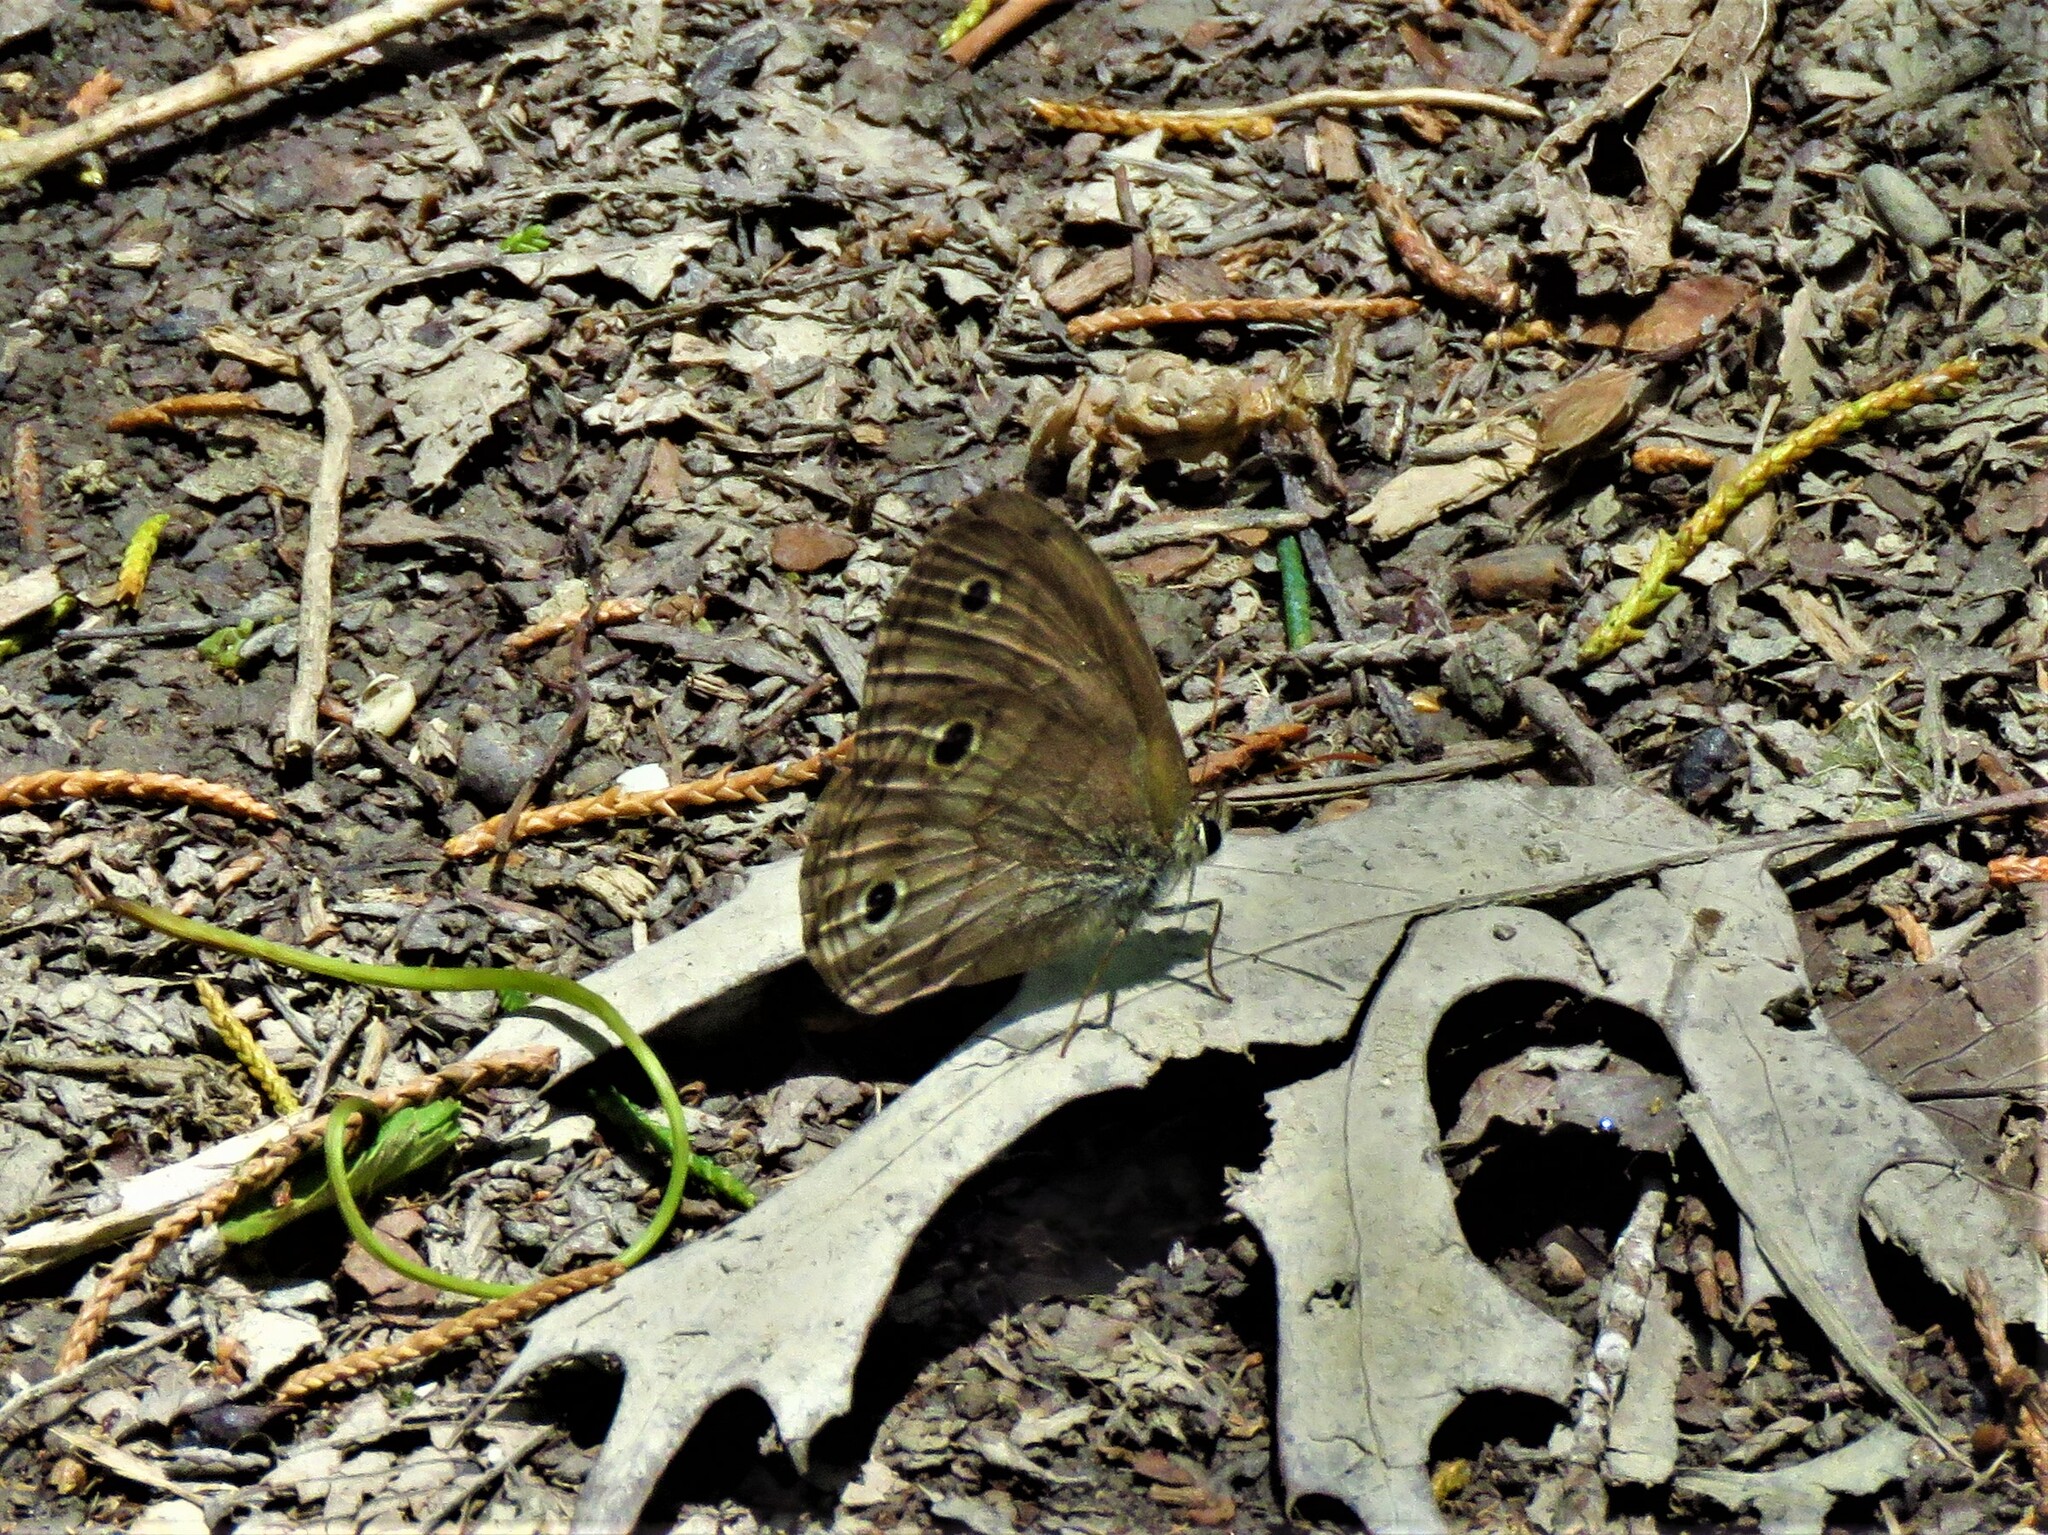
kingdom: Animalia
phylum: Arthropoda
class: Insecta
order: Lepidoptera
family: Nymphalidae
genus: Euptychia
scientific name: Euptychia cymela
